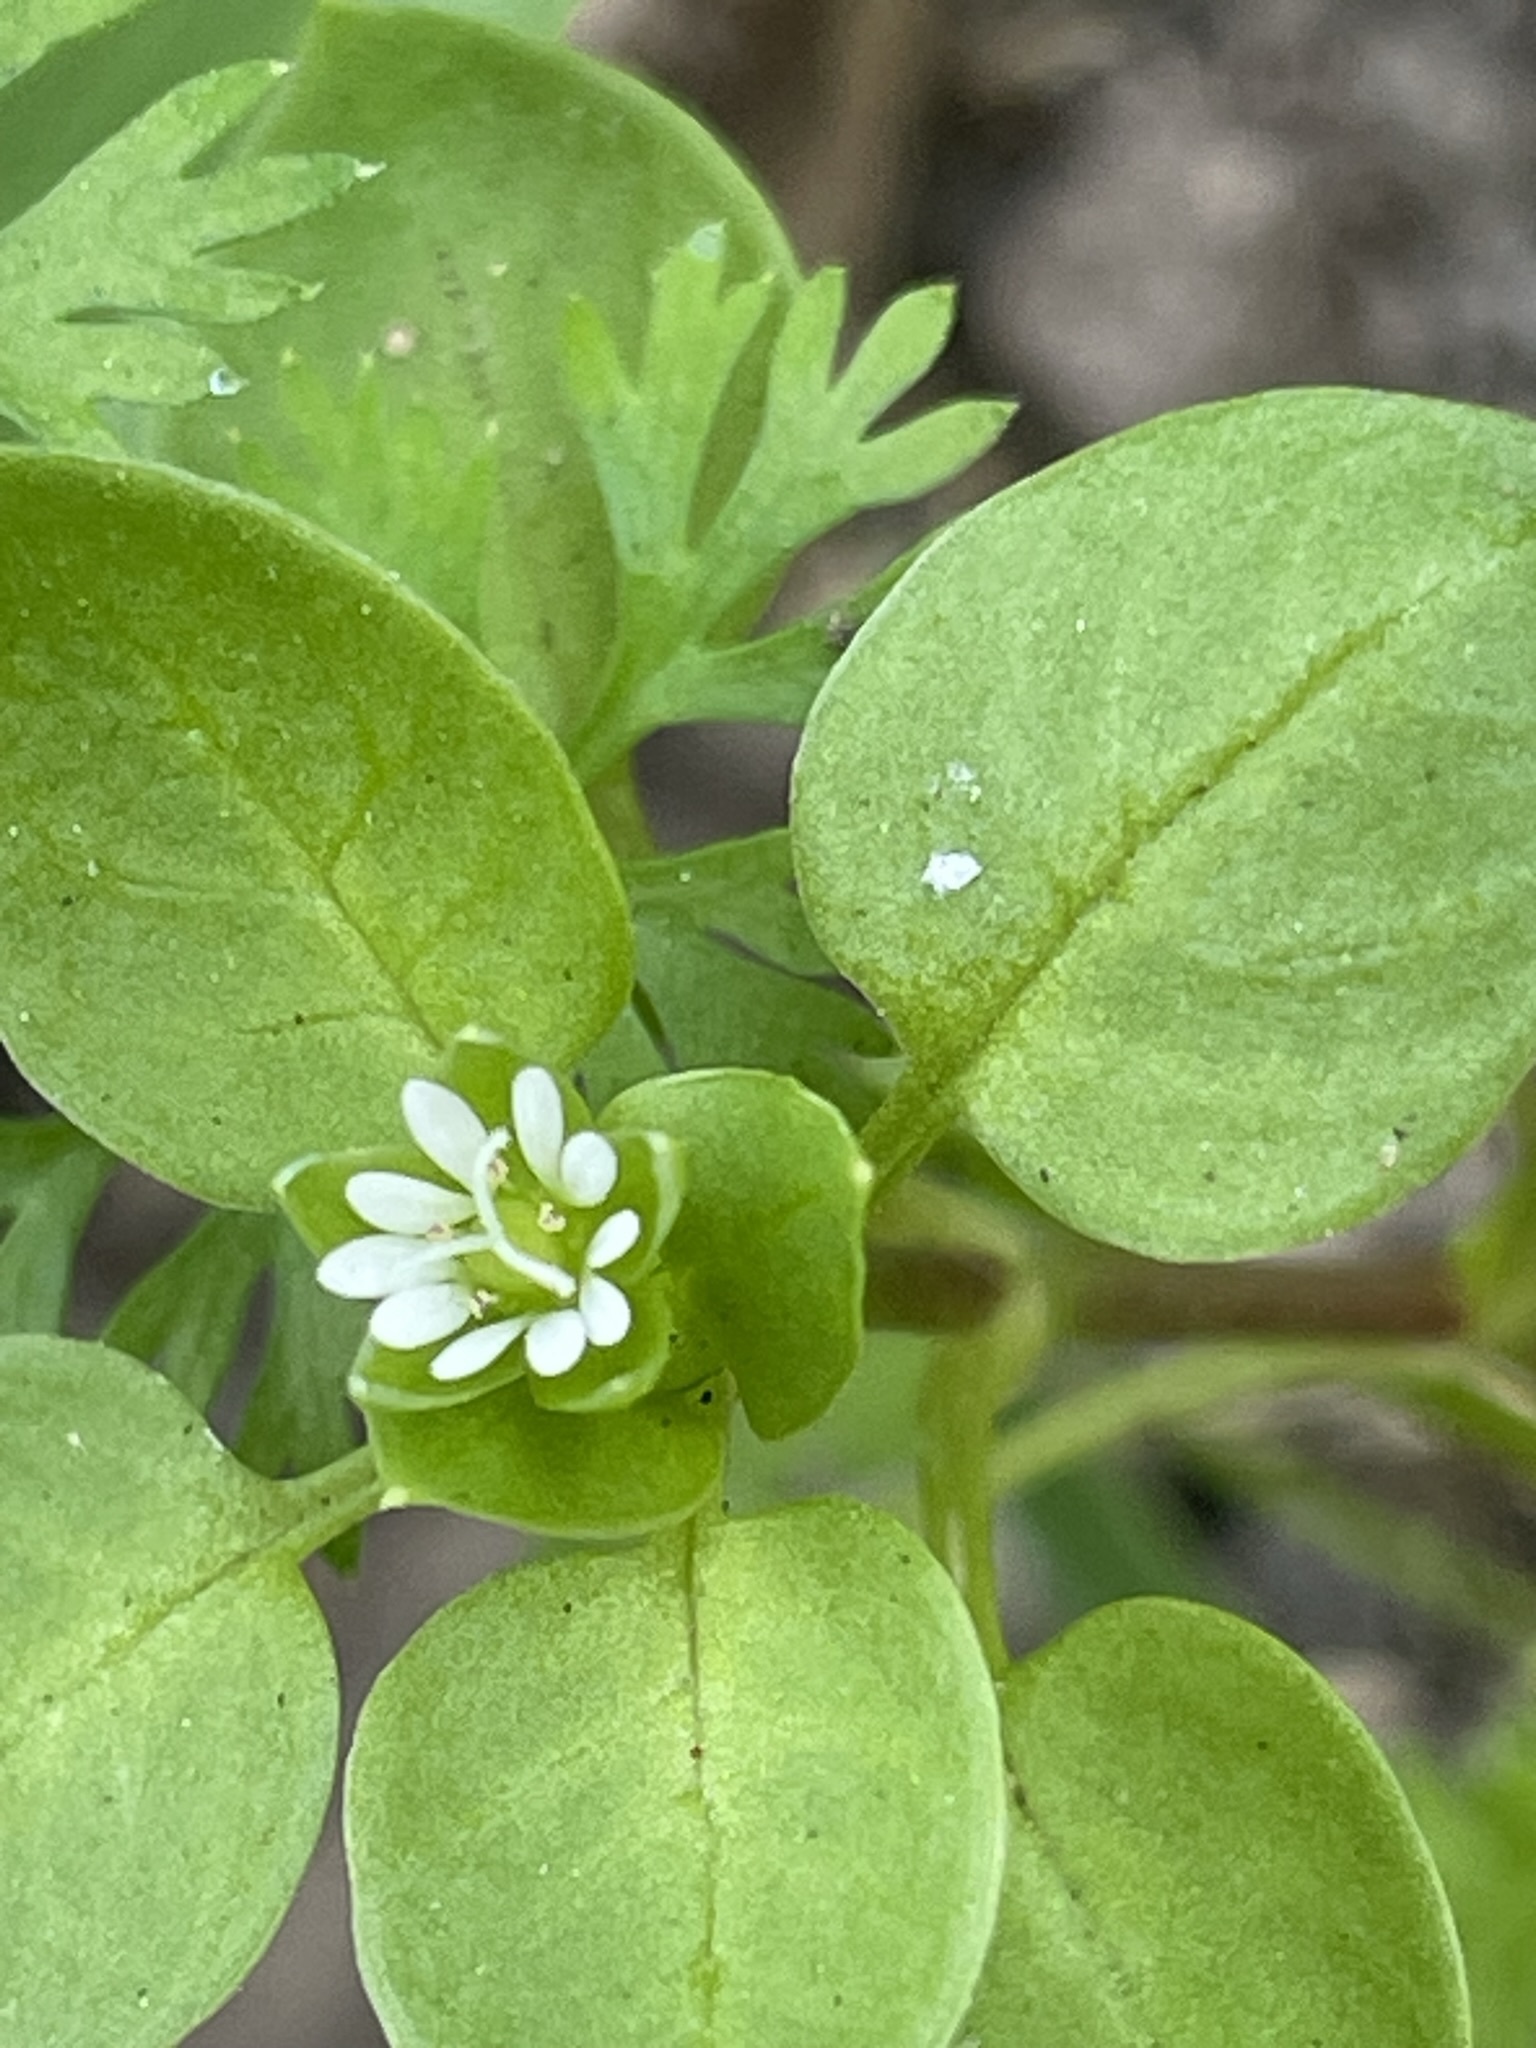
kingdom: Plantae
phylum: Tracheophyta
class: Magnoliopsida
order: Caryophyllales
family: Caryophyllaceae
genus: Stellaria
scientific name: Stellaria media
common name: Common chickweed
